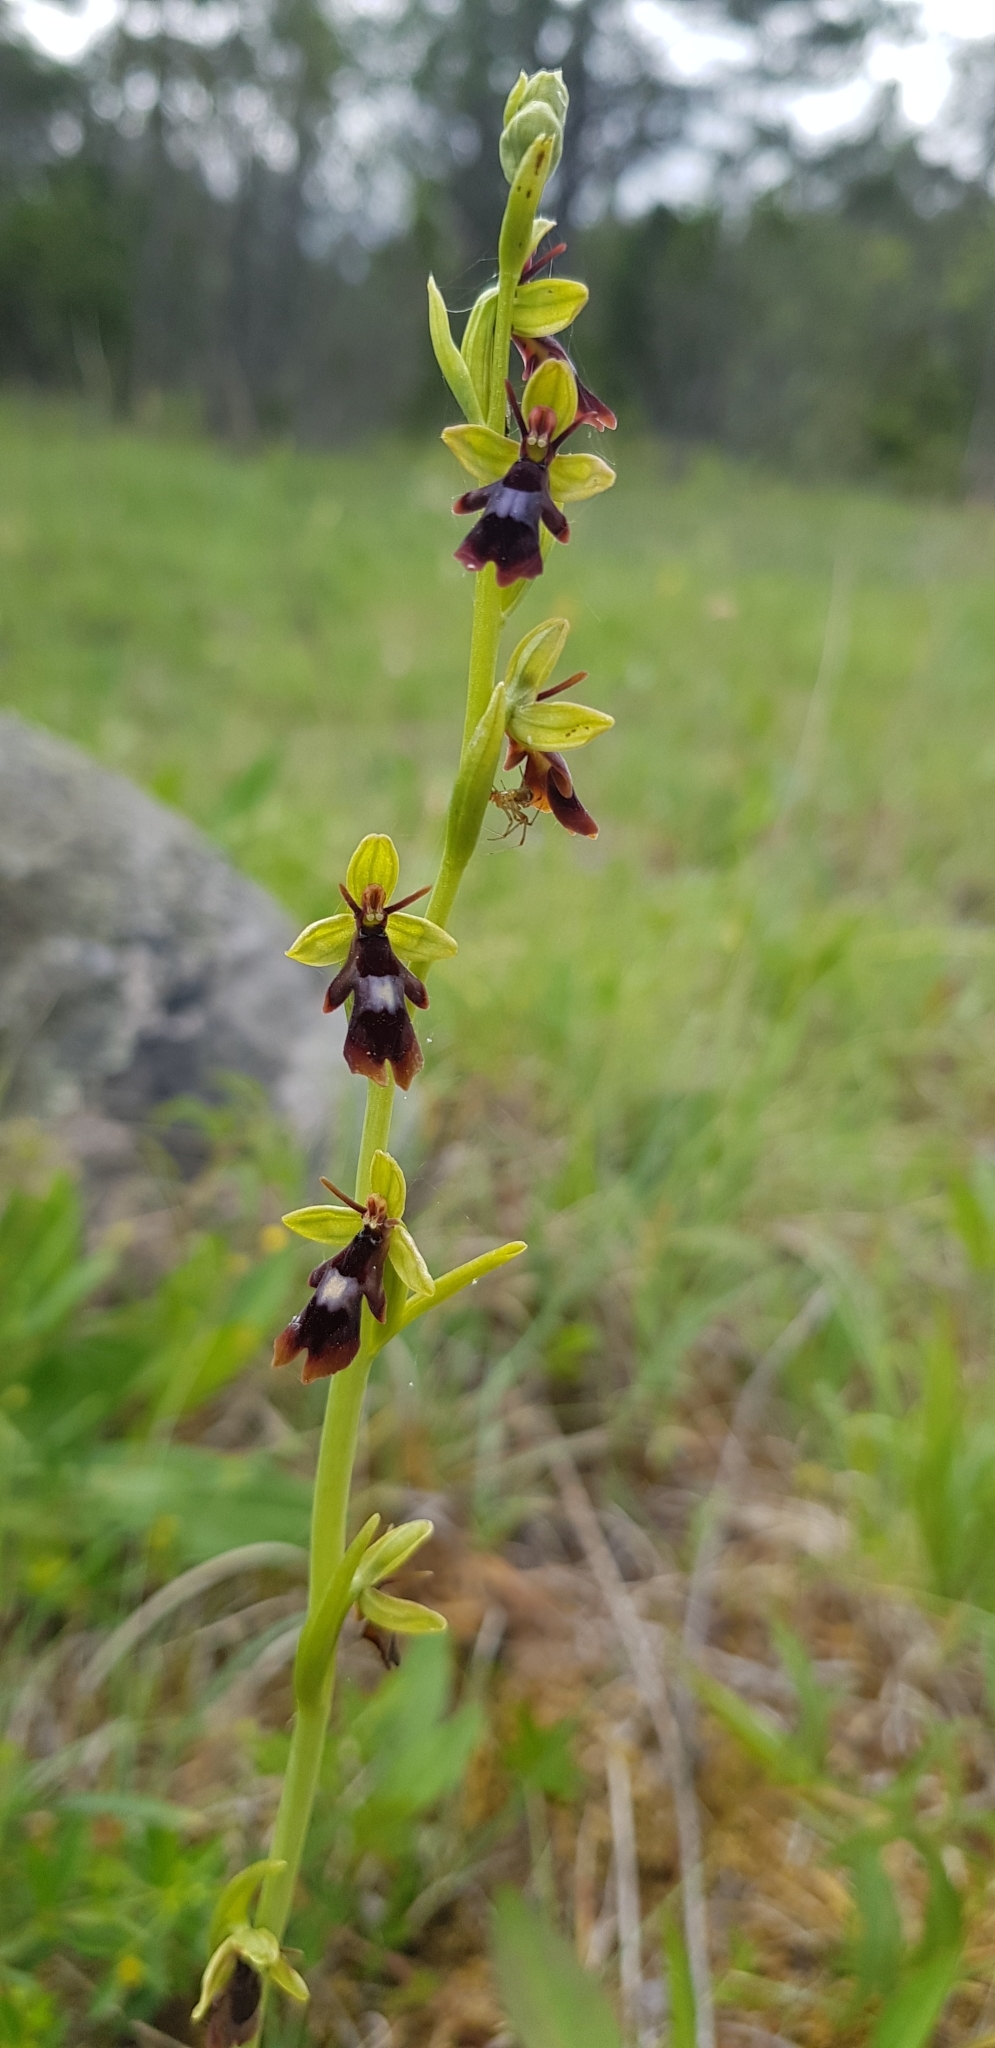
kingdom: Plantae
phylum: Tracheophyta
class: Liliopsida
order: Asparagales
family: Orchidaceae
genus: Ophrys
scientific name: Ophrys insectifera
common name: Fly orchid
